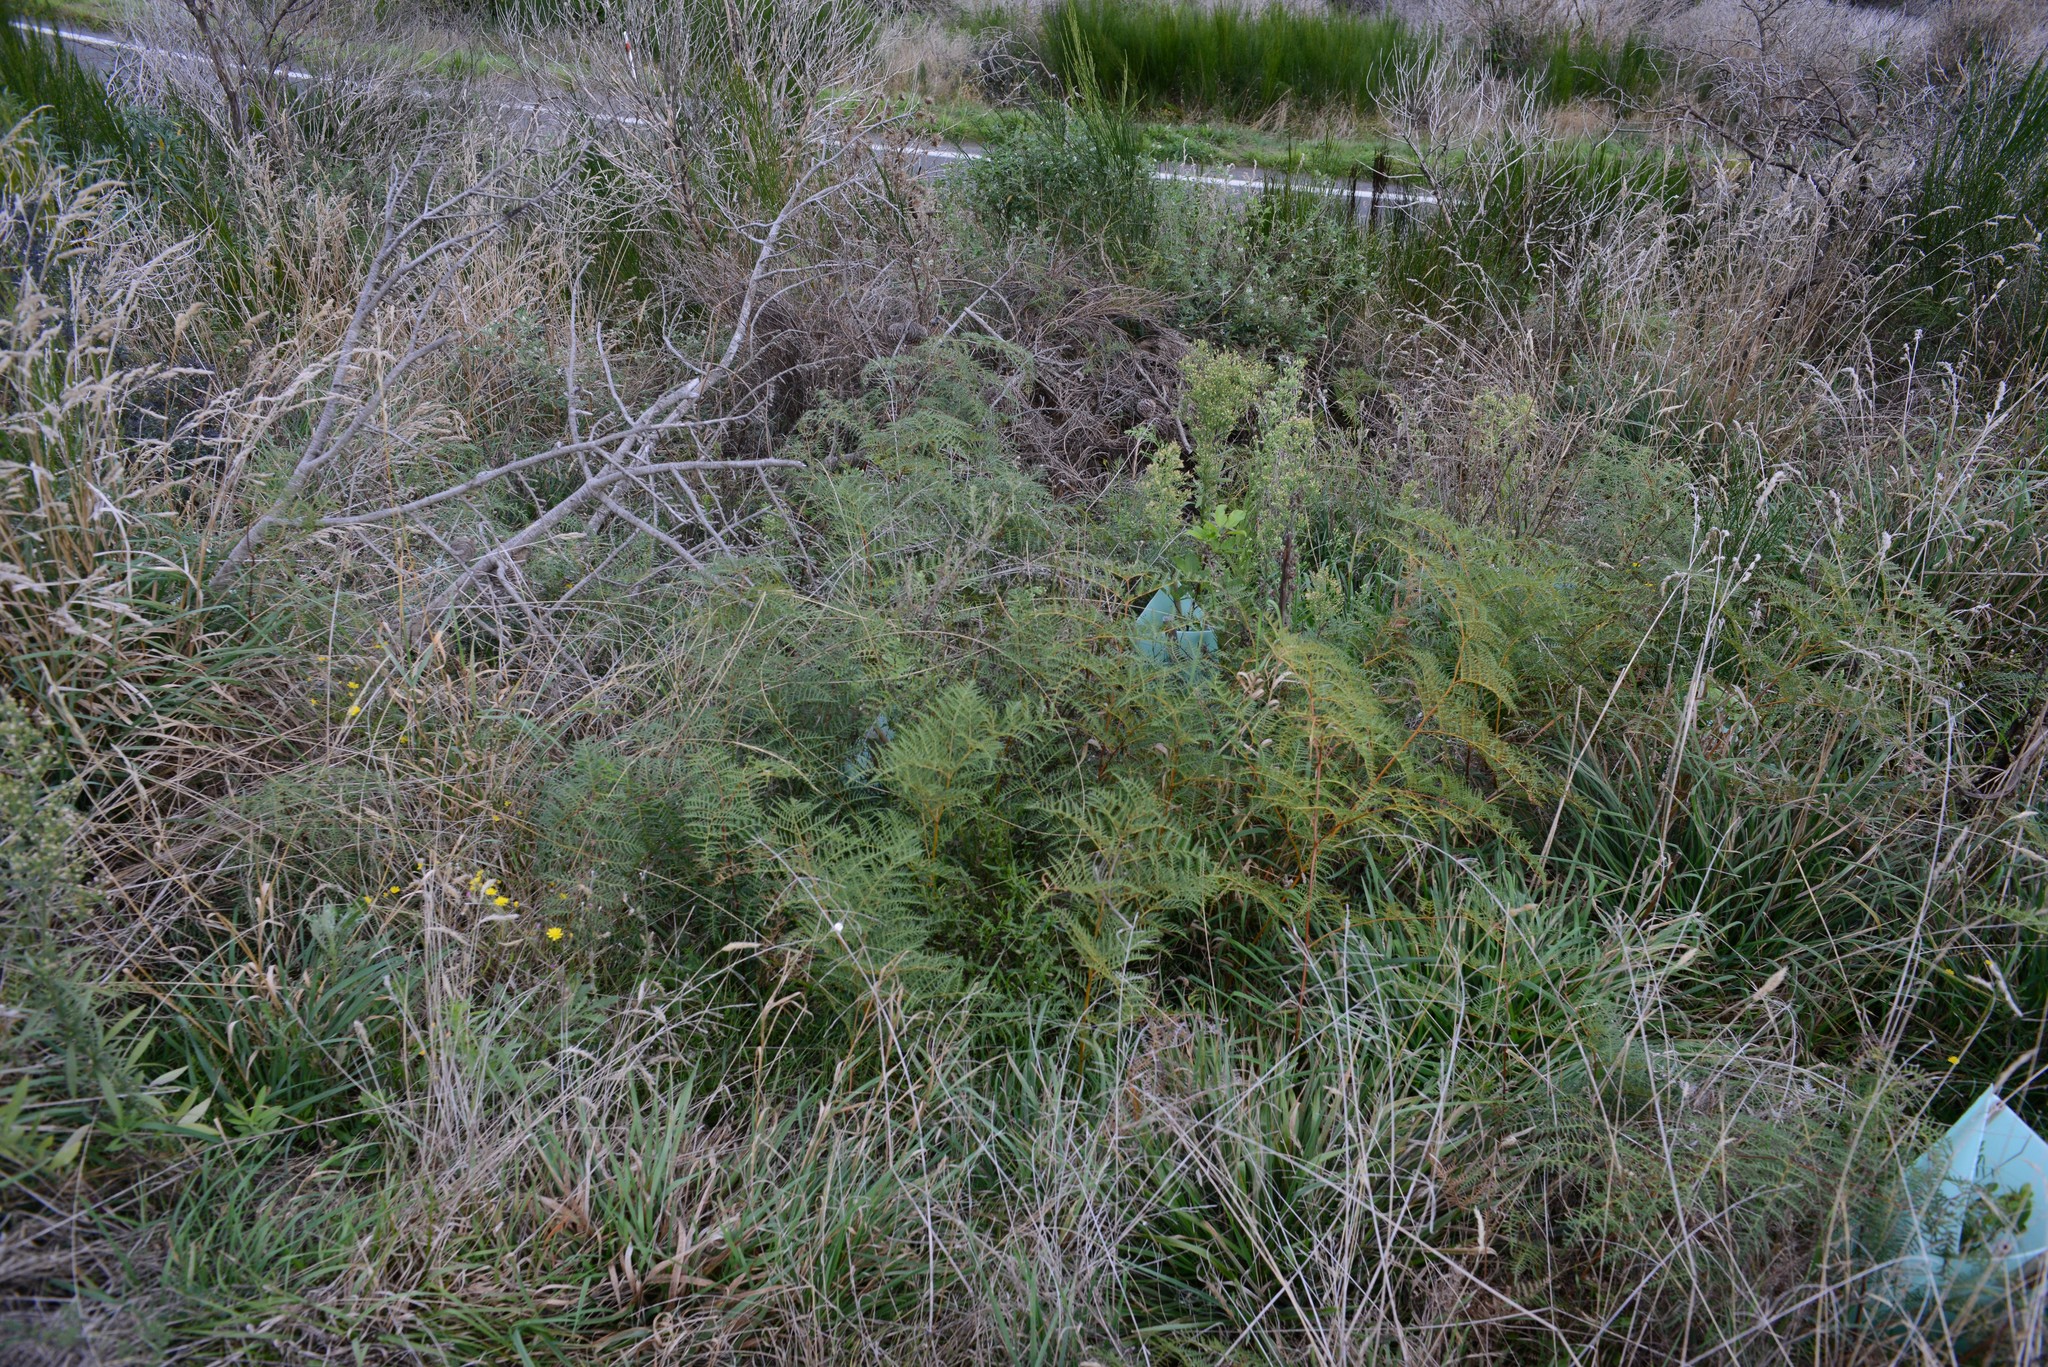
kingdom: Plantae
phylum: Tracheophyta
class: Polypodiopsida
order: Polypodiales
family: Dennstaedtiaceae
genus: Pteridium
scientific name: Pteridium esculentum
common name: Bracken fern
